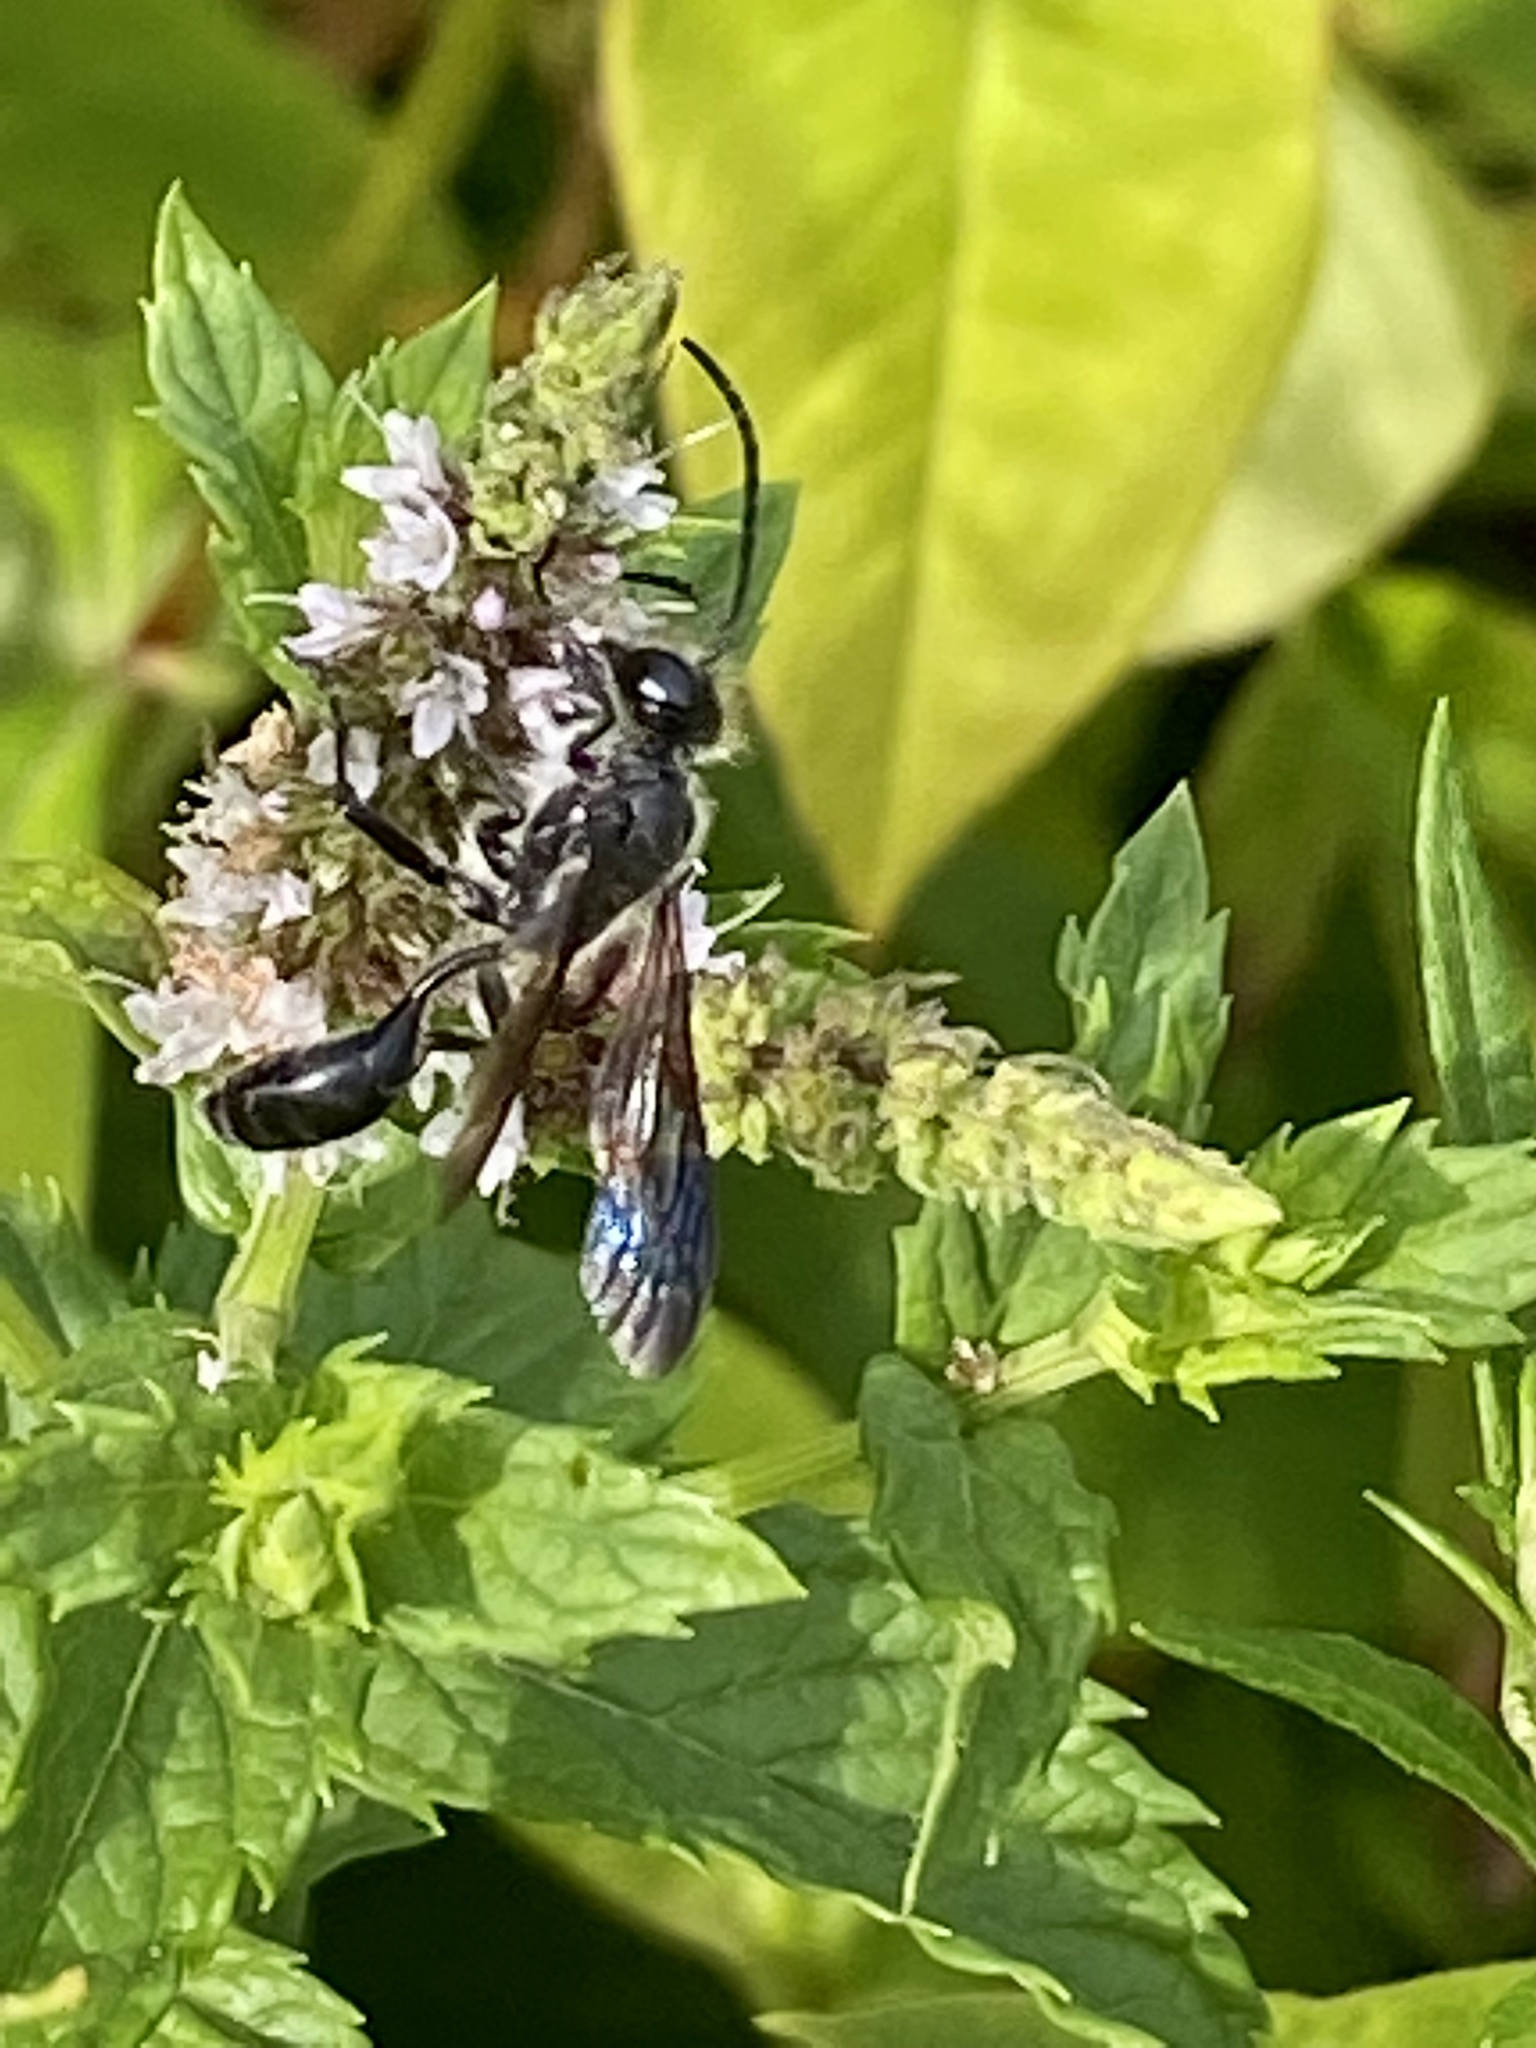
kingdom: Animalia
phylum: Arthropoda
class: Insecta
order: Hymenoptera
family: Sphecidae
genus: Isodontia
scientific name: Isodontia mexicana
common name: Mud dauber
